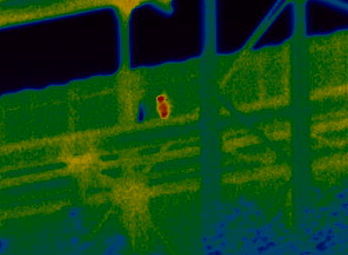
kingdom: Animalia
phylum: Chordata
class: Aves
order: Strigiformes
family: Tytonidae
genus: Tyto
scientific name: Tyto alba
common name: Barn owl
